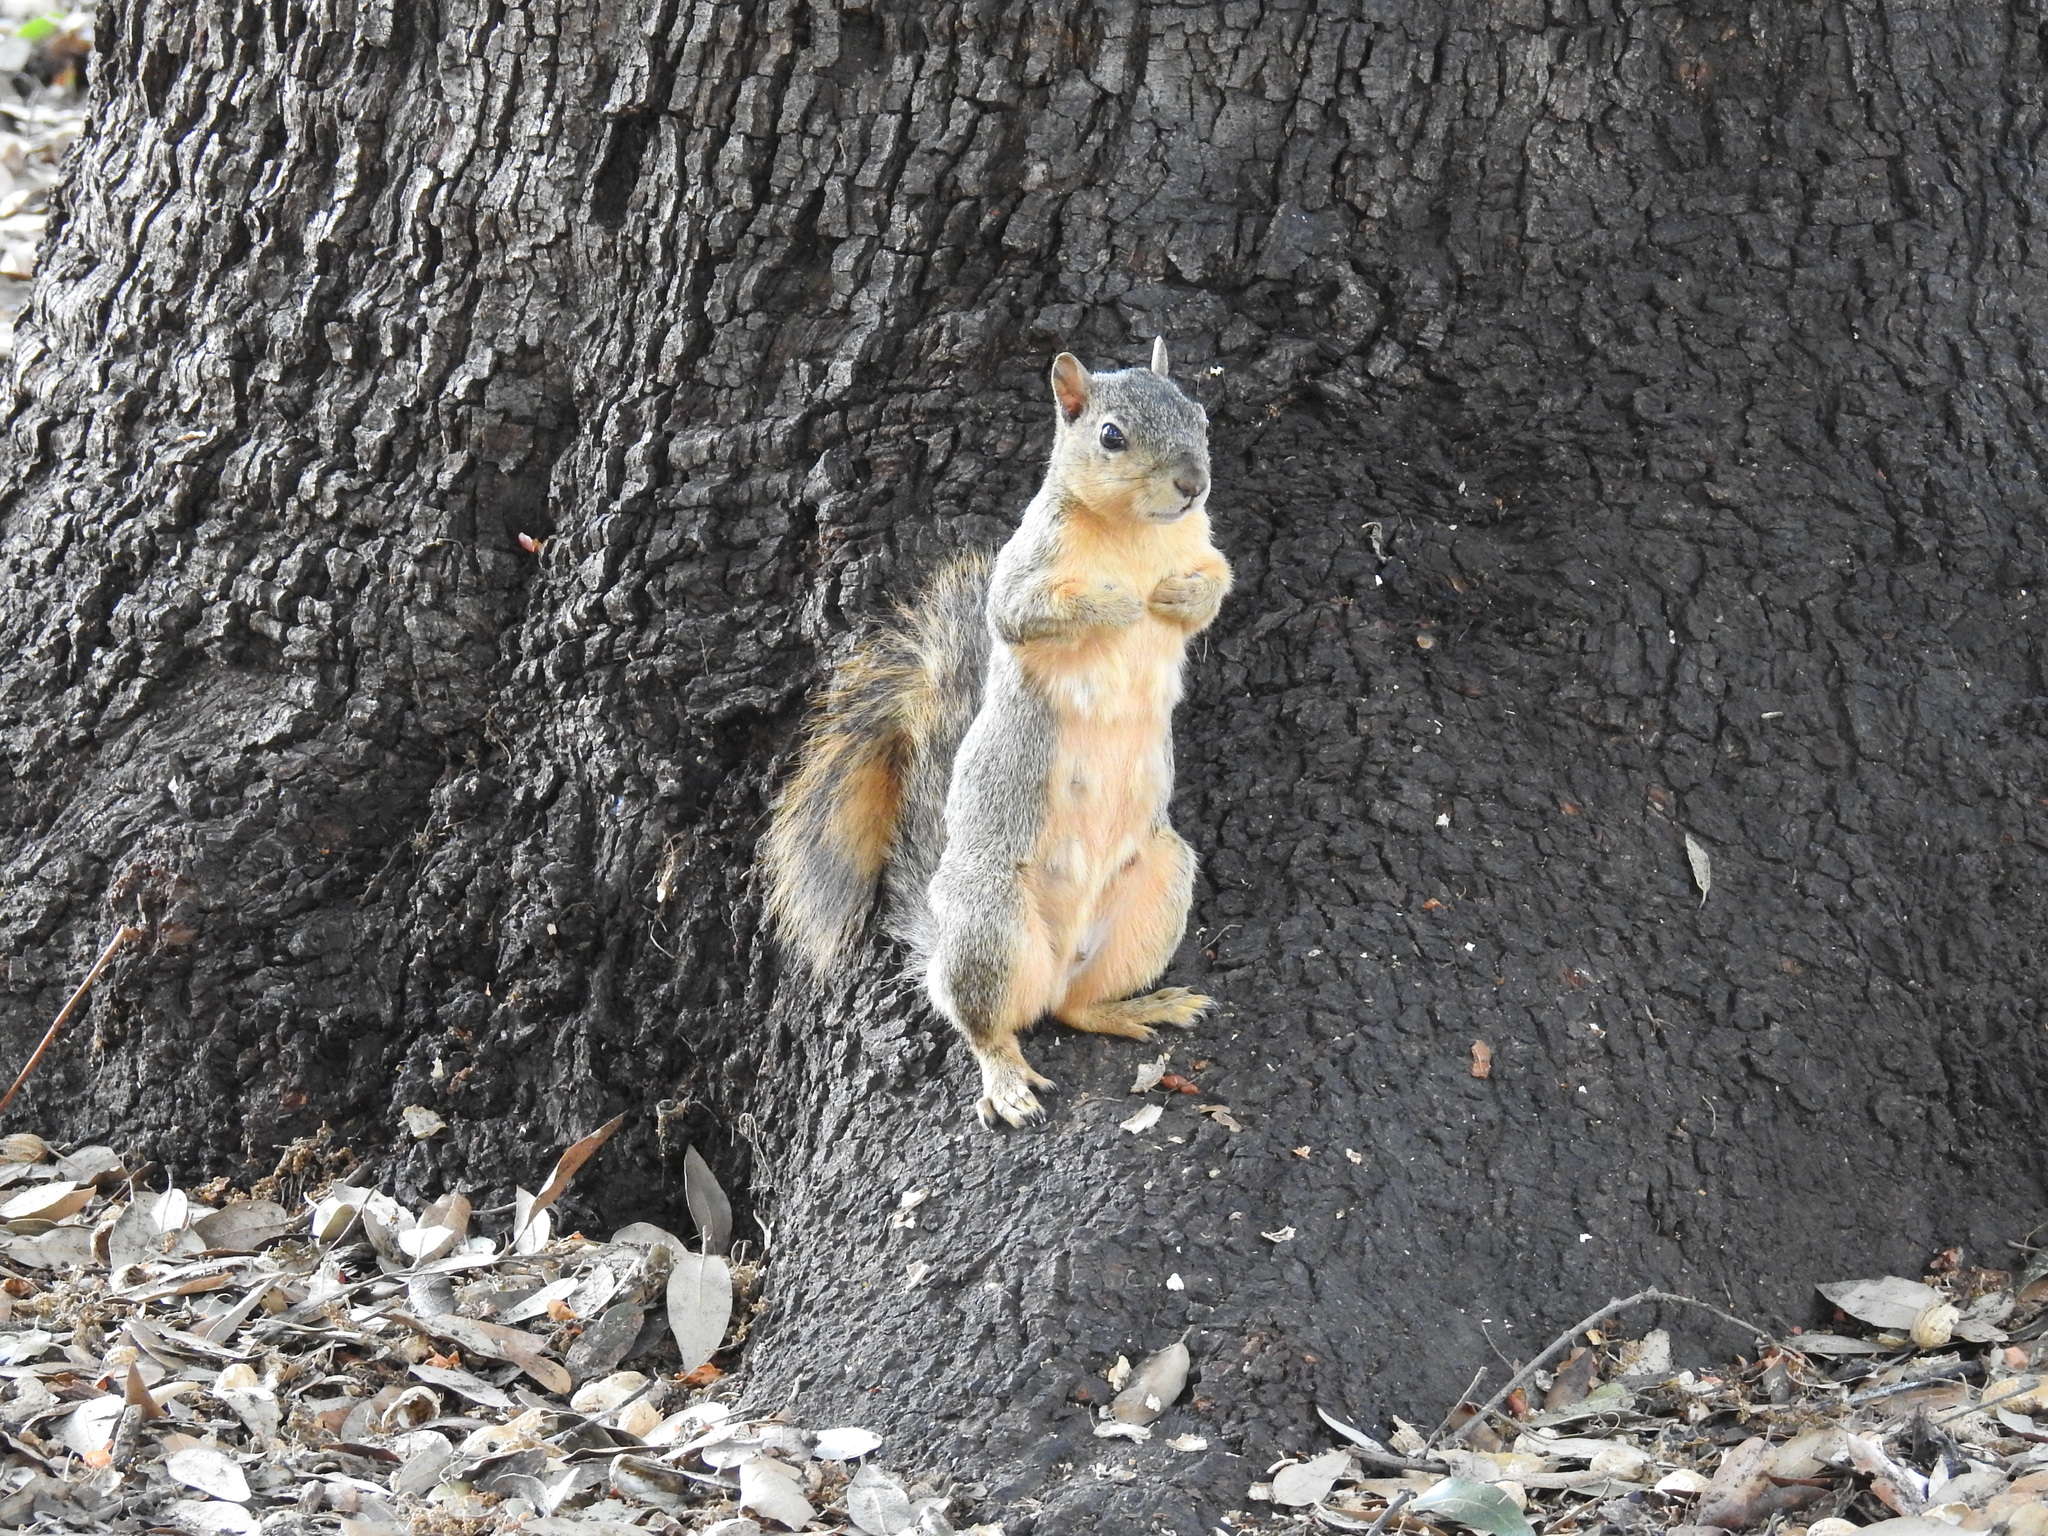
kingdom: Animalia
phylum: Chordata
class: Mammalia
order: Rodentia
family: Sciuridae
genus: Sciurus
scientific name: Sciurus niger
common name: Fox squirrel
